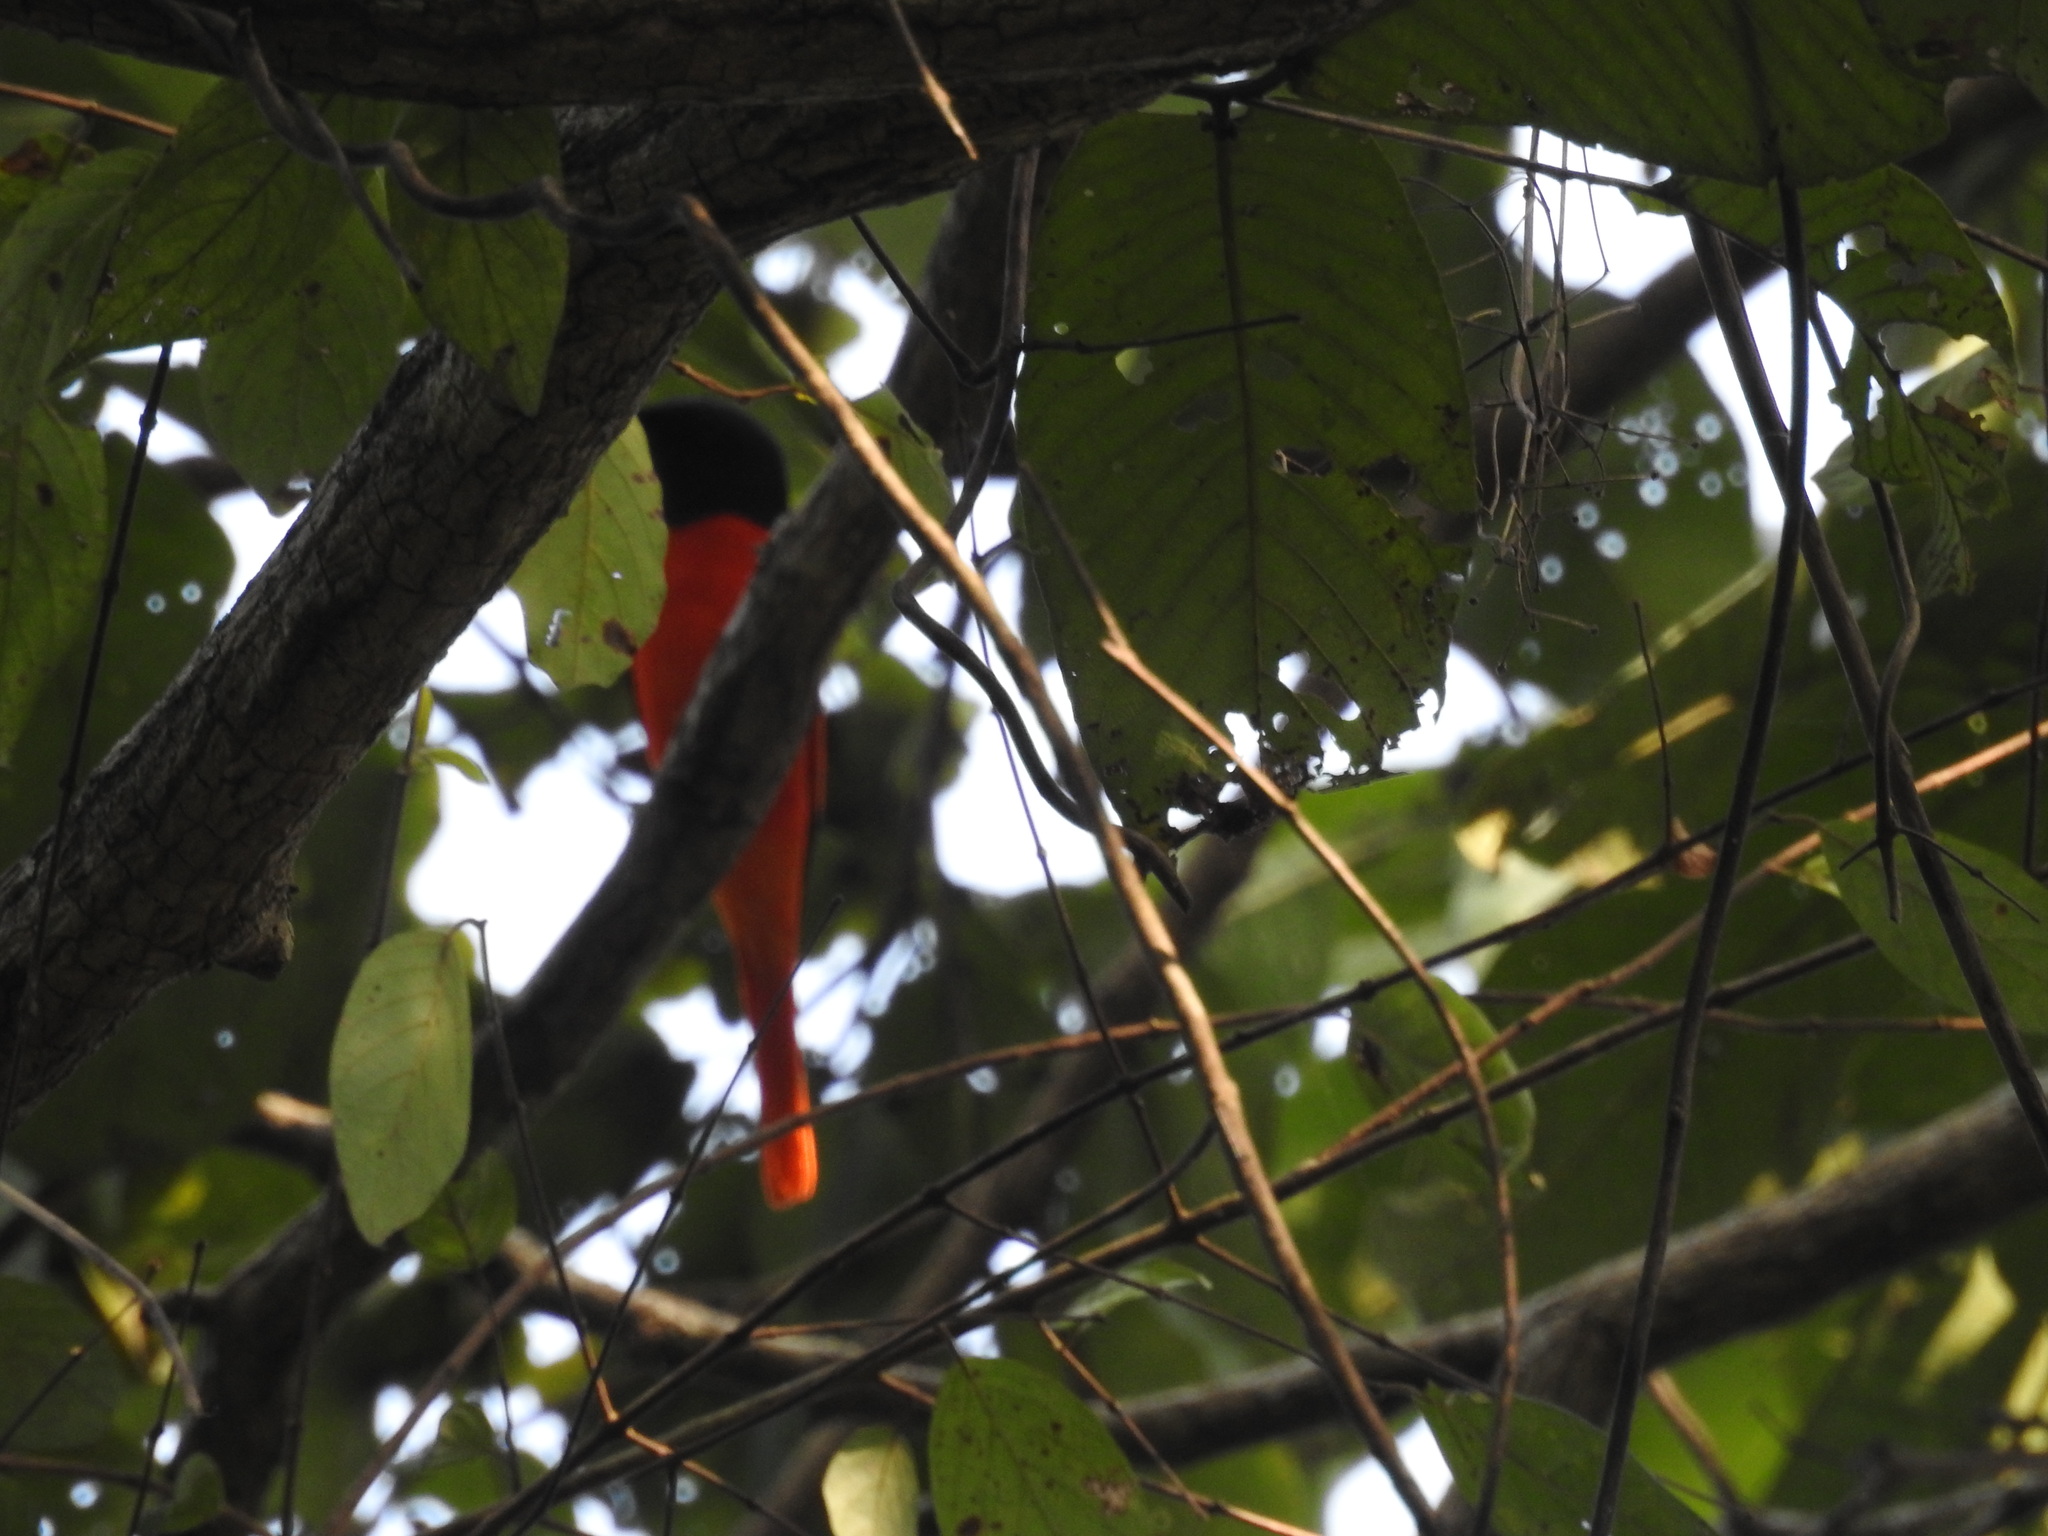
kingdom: Animalia
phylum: Chordata
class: Aves
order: Passeriformes
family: Campephagidae
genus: Pericrocotus
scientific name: Pericrocotus speciosus
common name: Scarlet minivet
